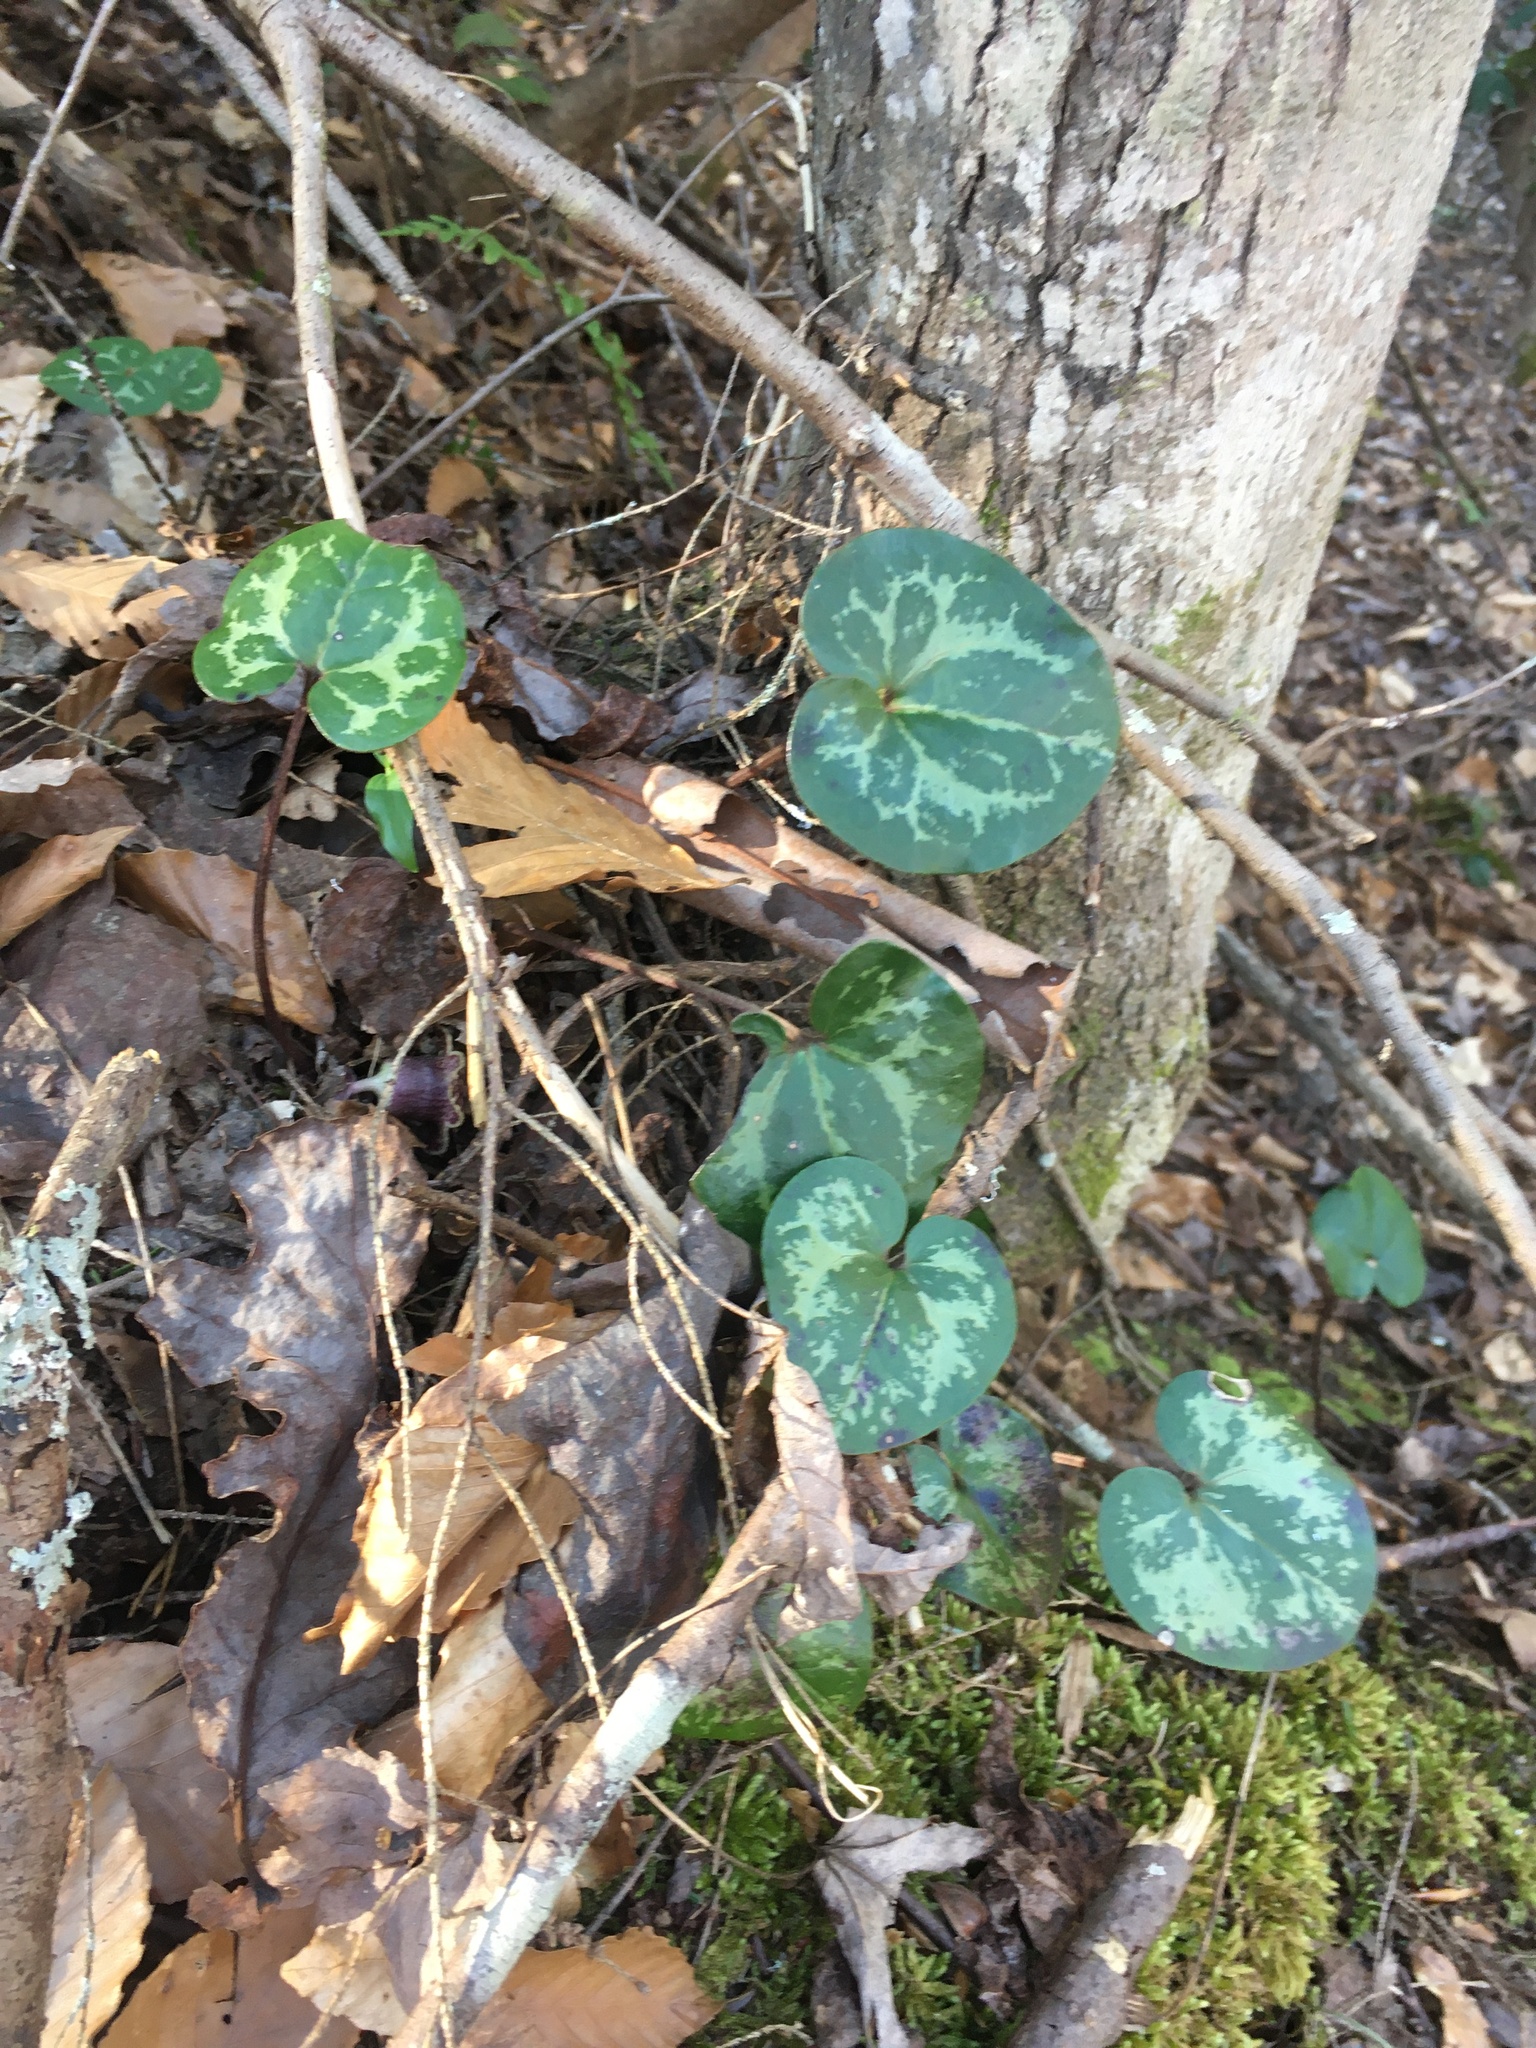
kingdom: Plantae
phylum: Tracheophyta
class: Magnoliopsida
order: Piperales
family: Aristolochiaceae
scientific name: Aristolochiaceae
